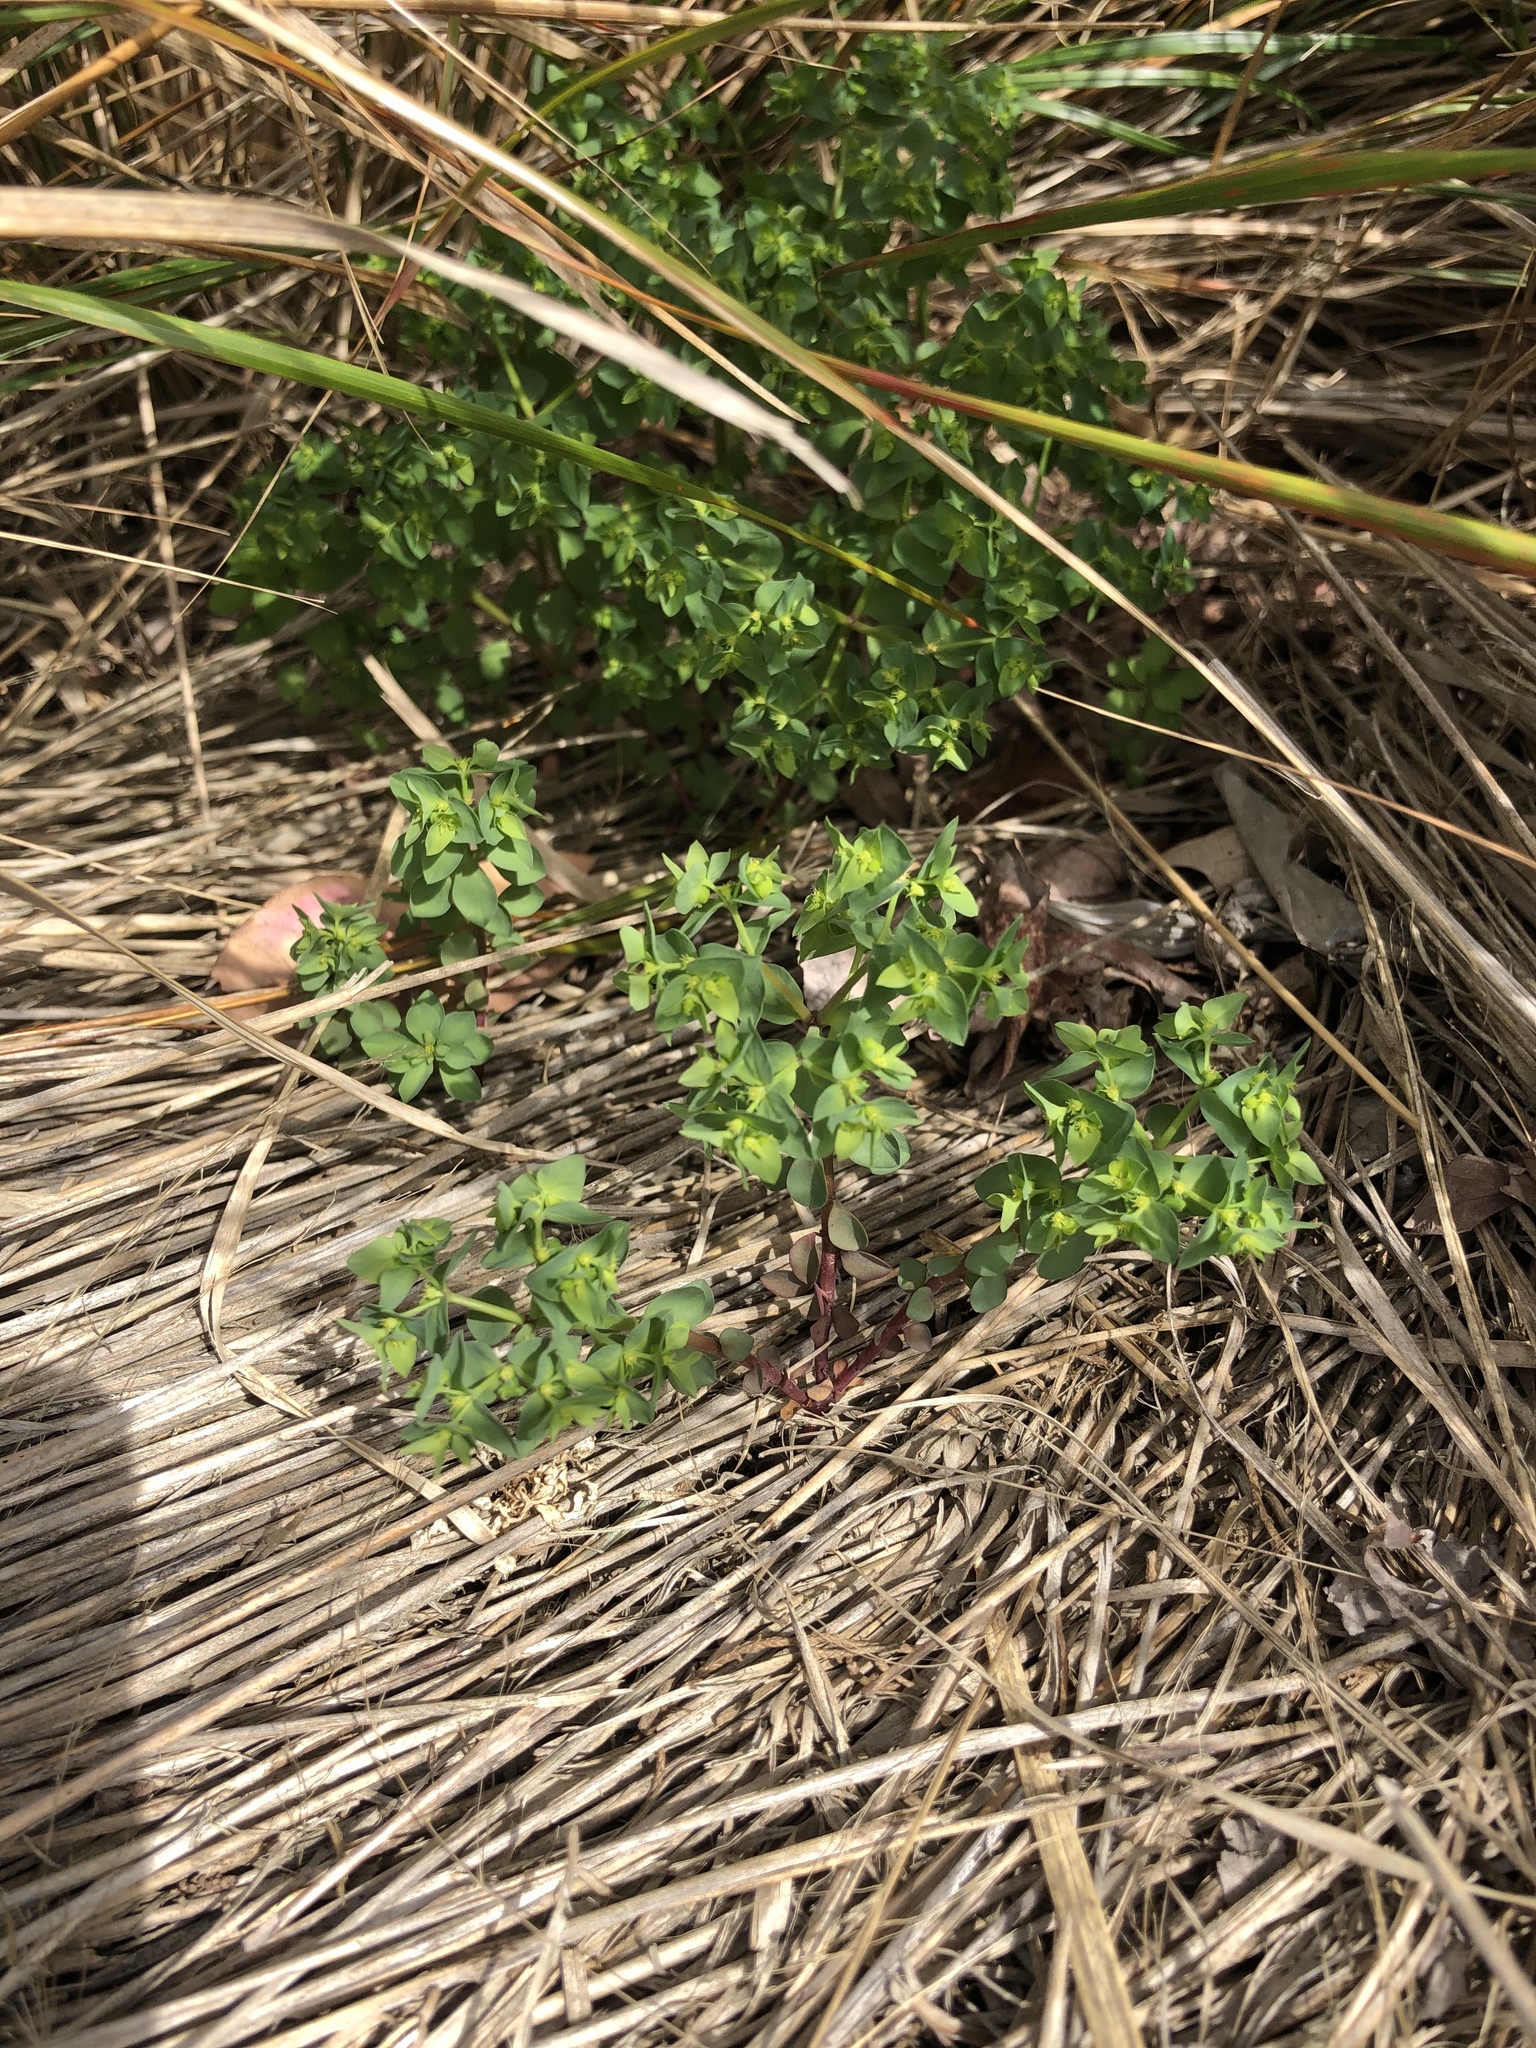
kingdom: Plantae
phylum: Tracheophyta
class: Magnoliopsida
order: Malpighiales
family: Euphorbiaceae
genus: Euphorbia
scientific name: Euphorbia peplus
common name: Petty spurge
